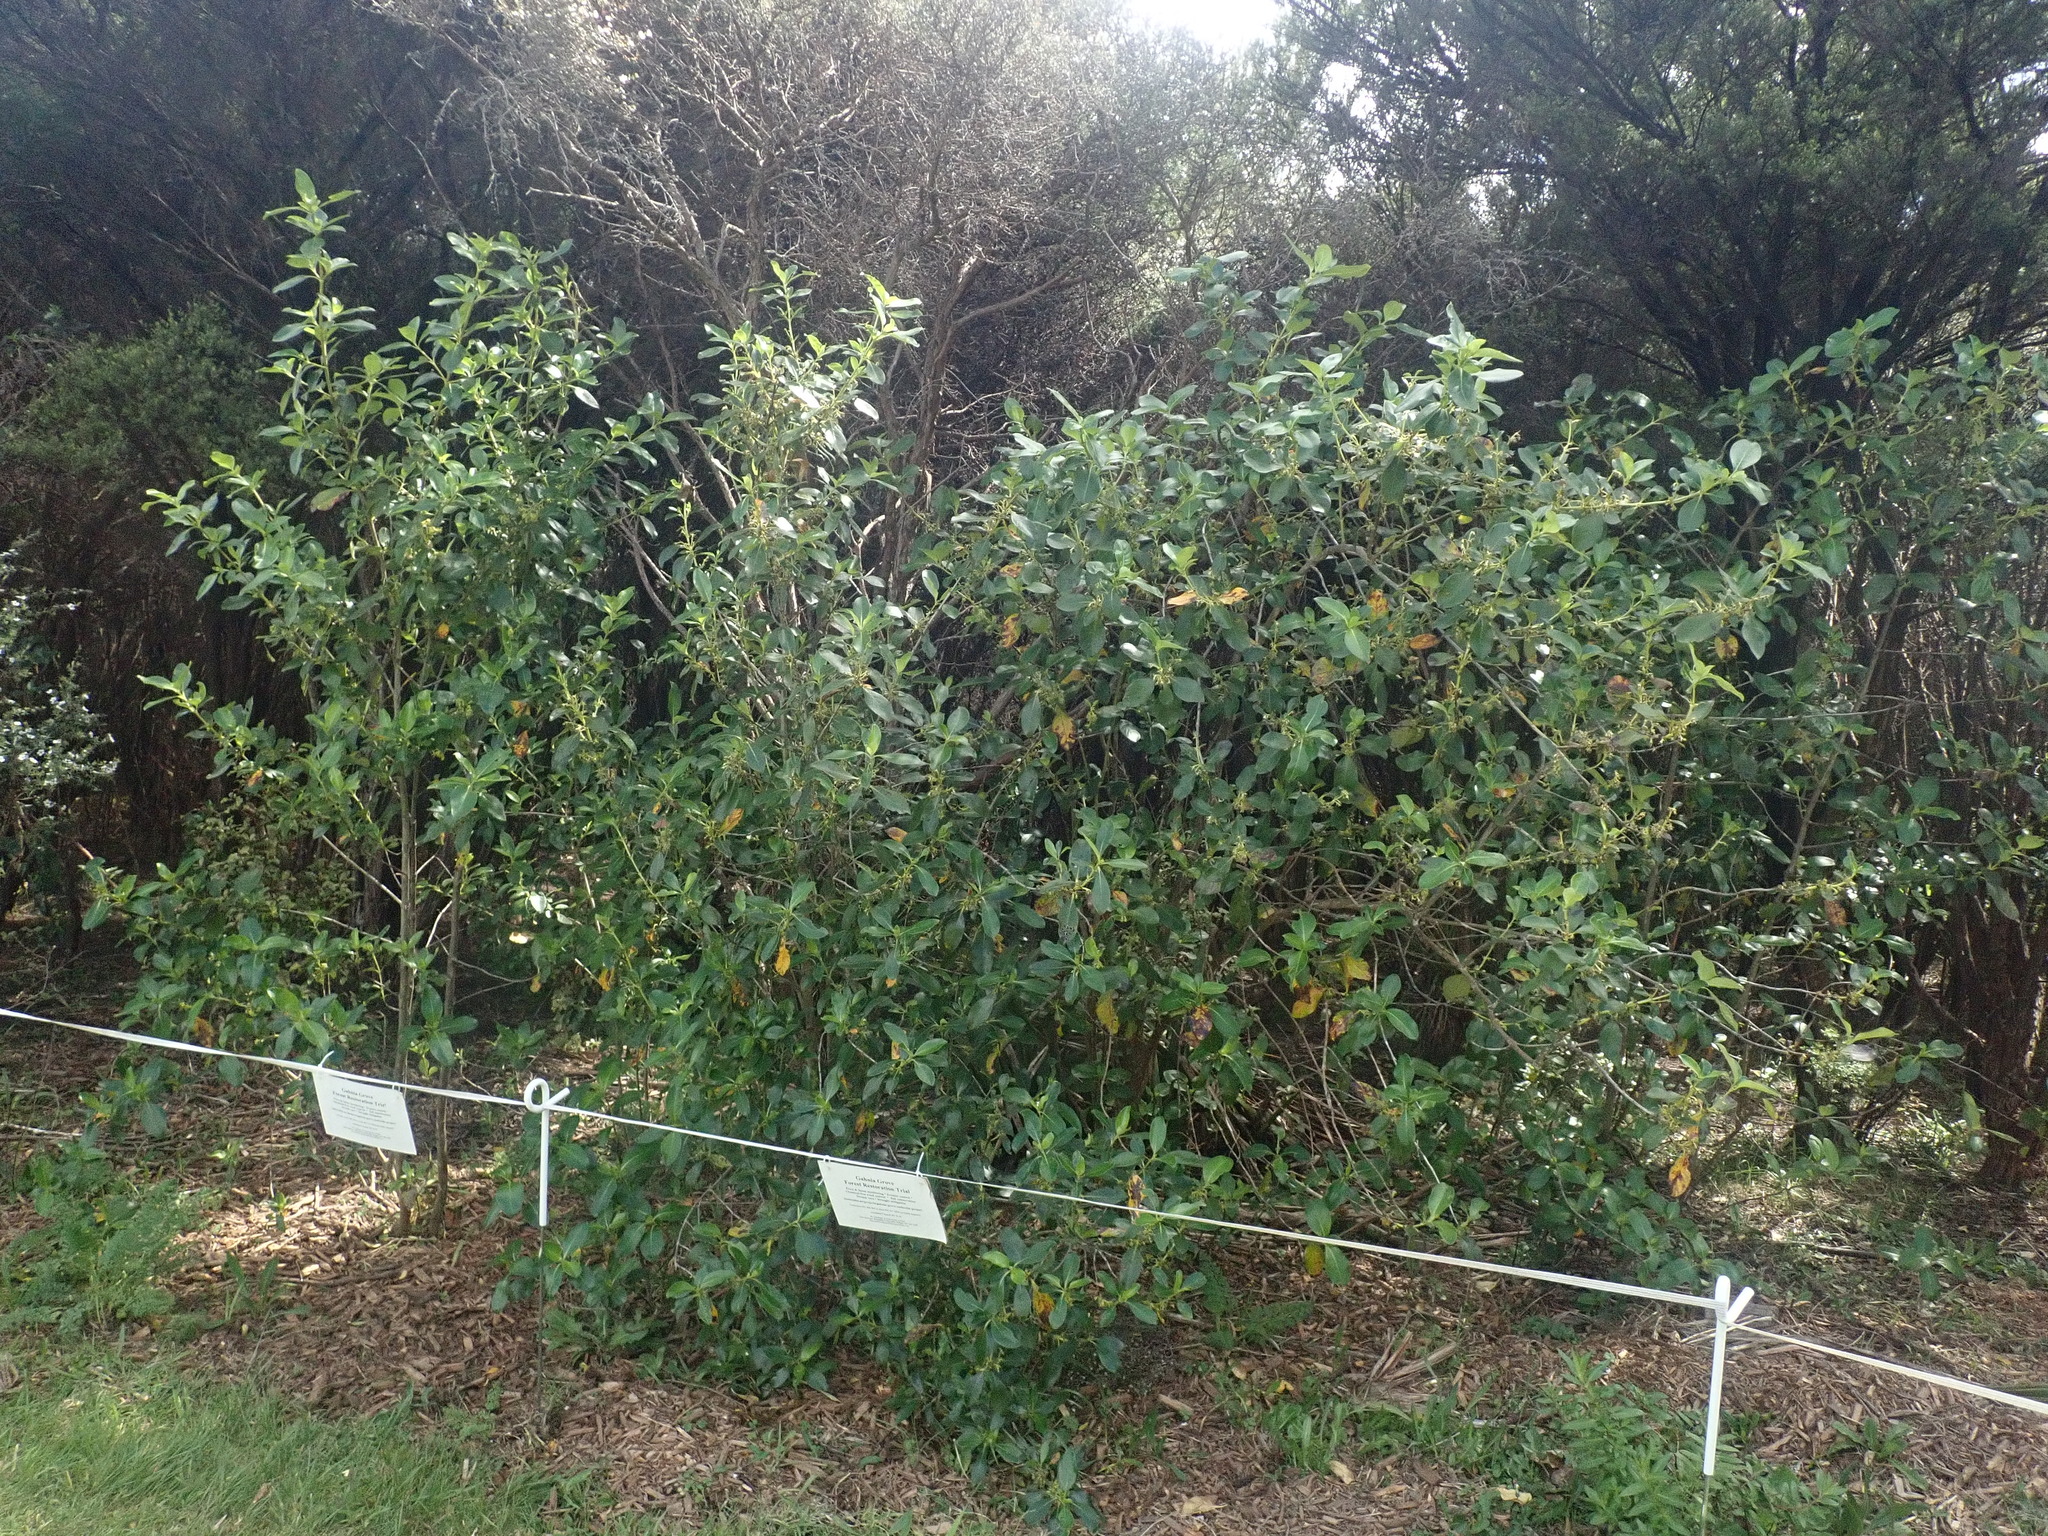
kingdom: Plantae
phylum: Tracheophyta
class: Magnoliopsida
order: Gentianales
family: Rubiaceae
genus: Coprosma
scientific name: Coprosma robusta
